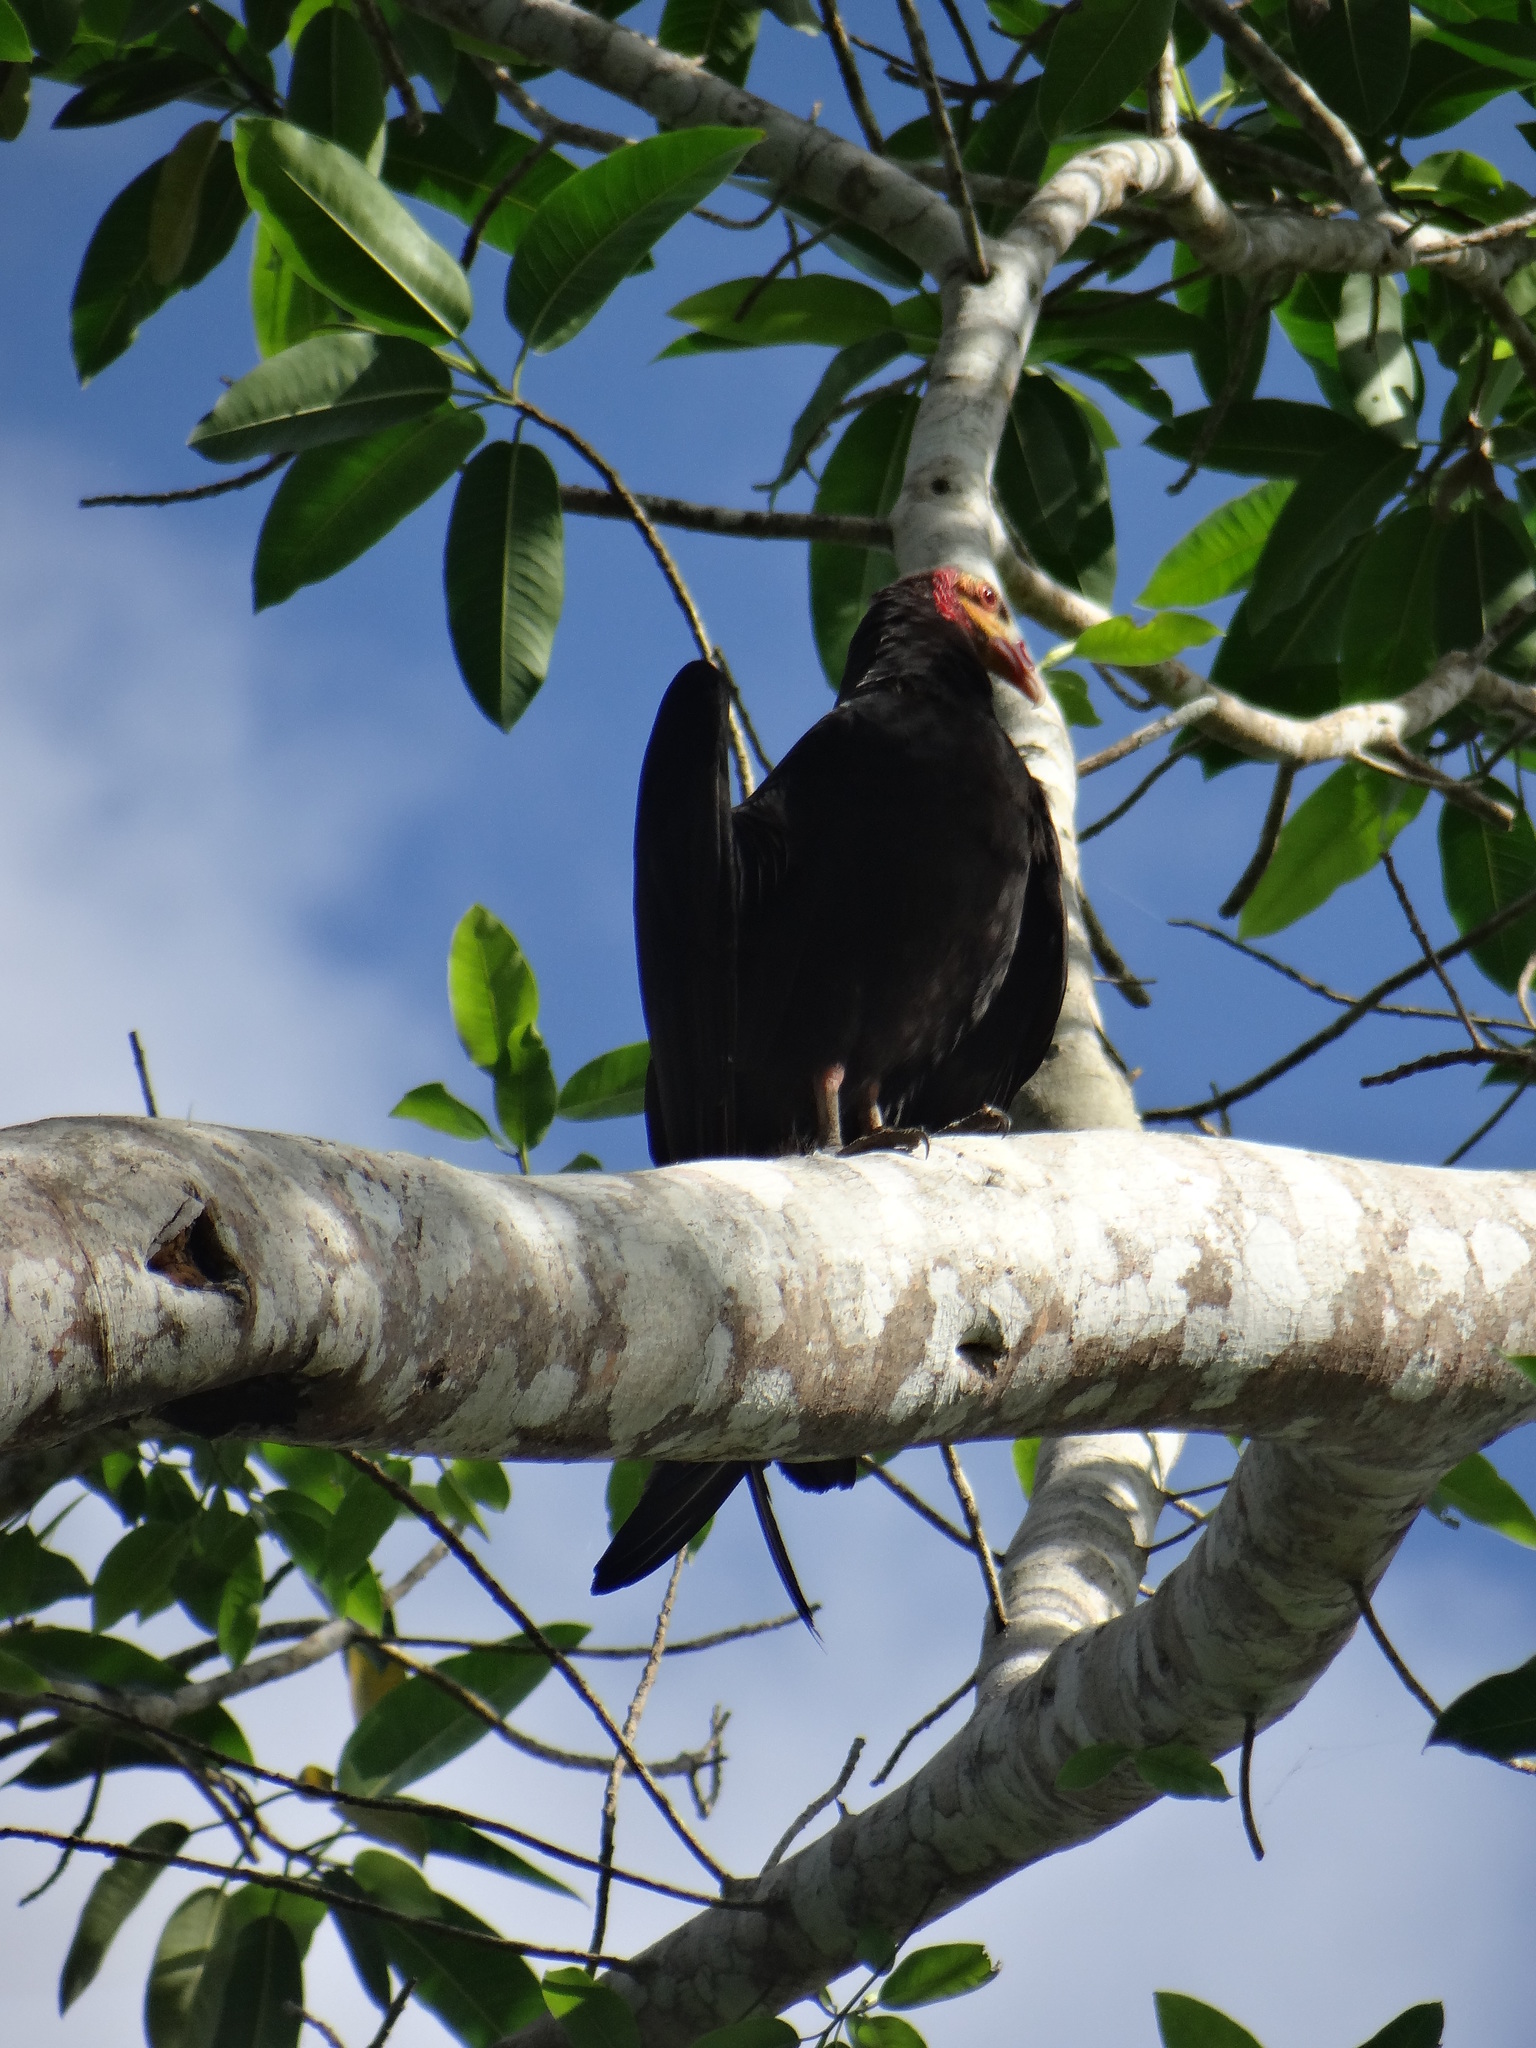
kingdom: Animalia
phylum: Chordata
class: Aves
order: Accipitriformes
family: Cathartidae
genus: Cathartes
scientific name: Cathartes burrovianus
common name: Lesser yellow-headed vulture
